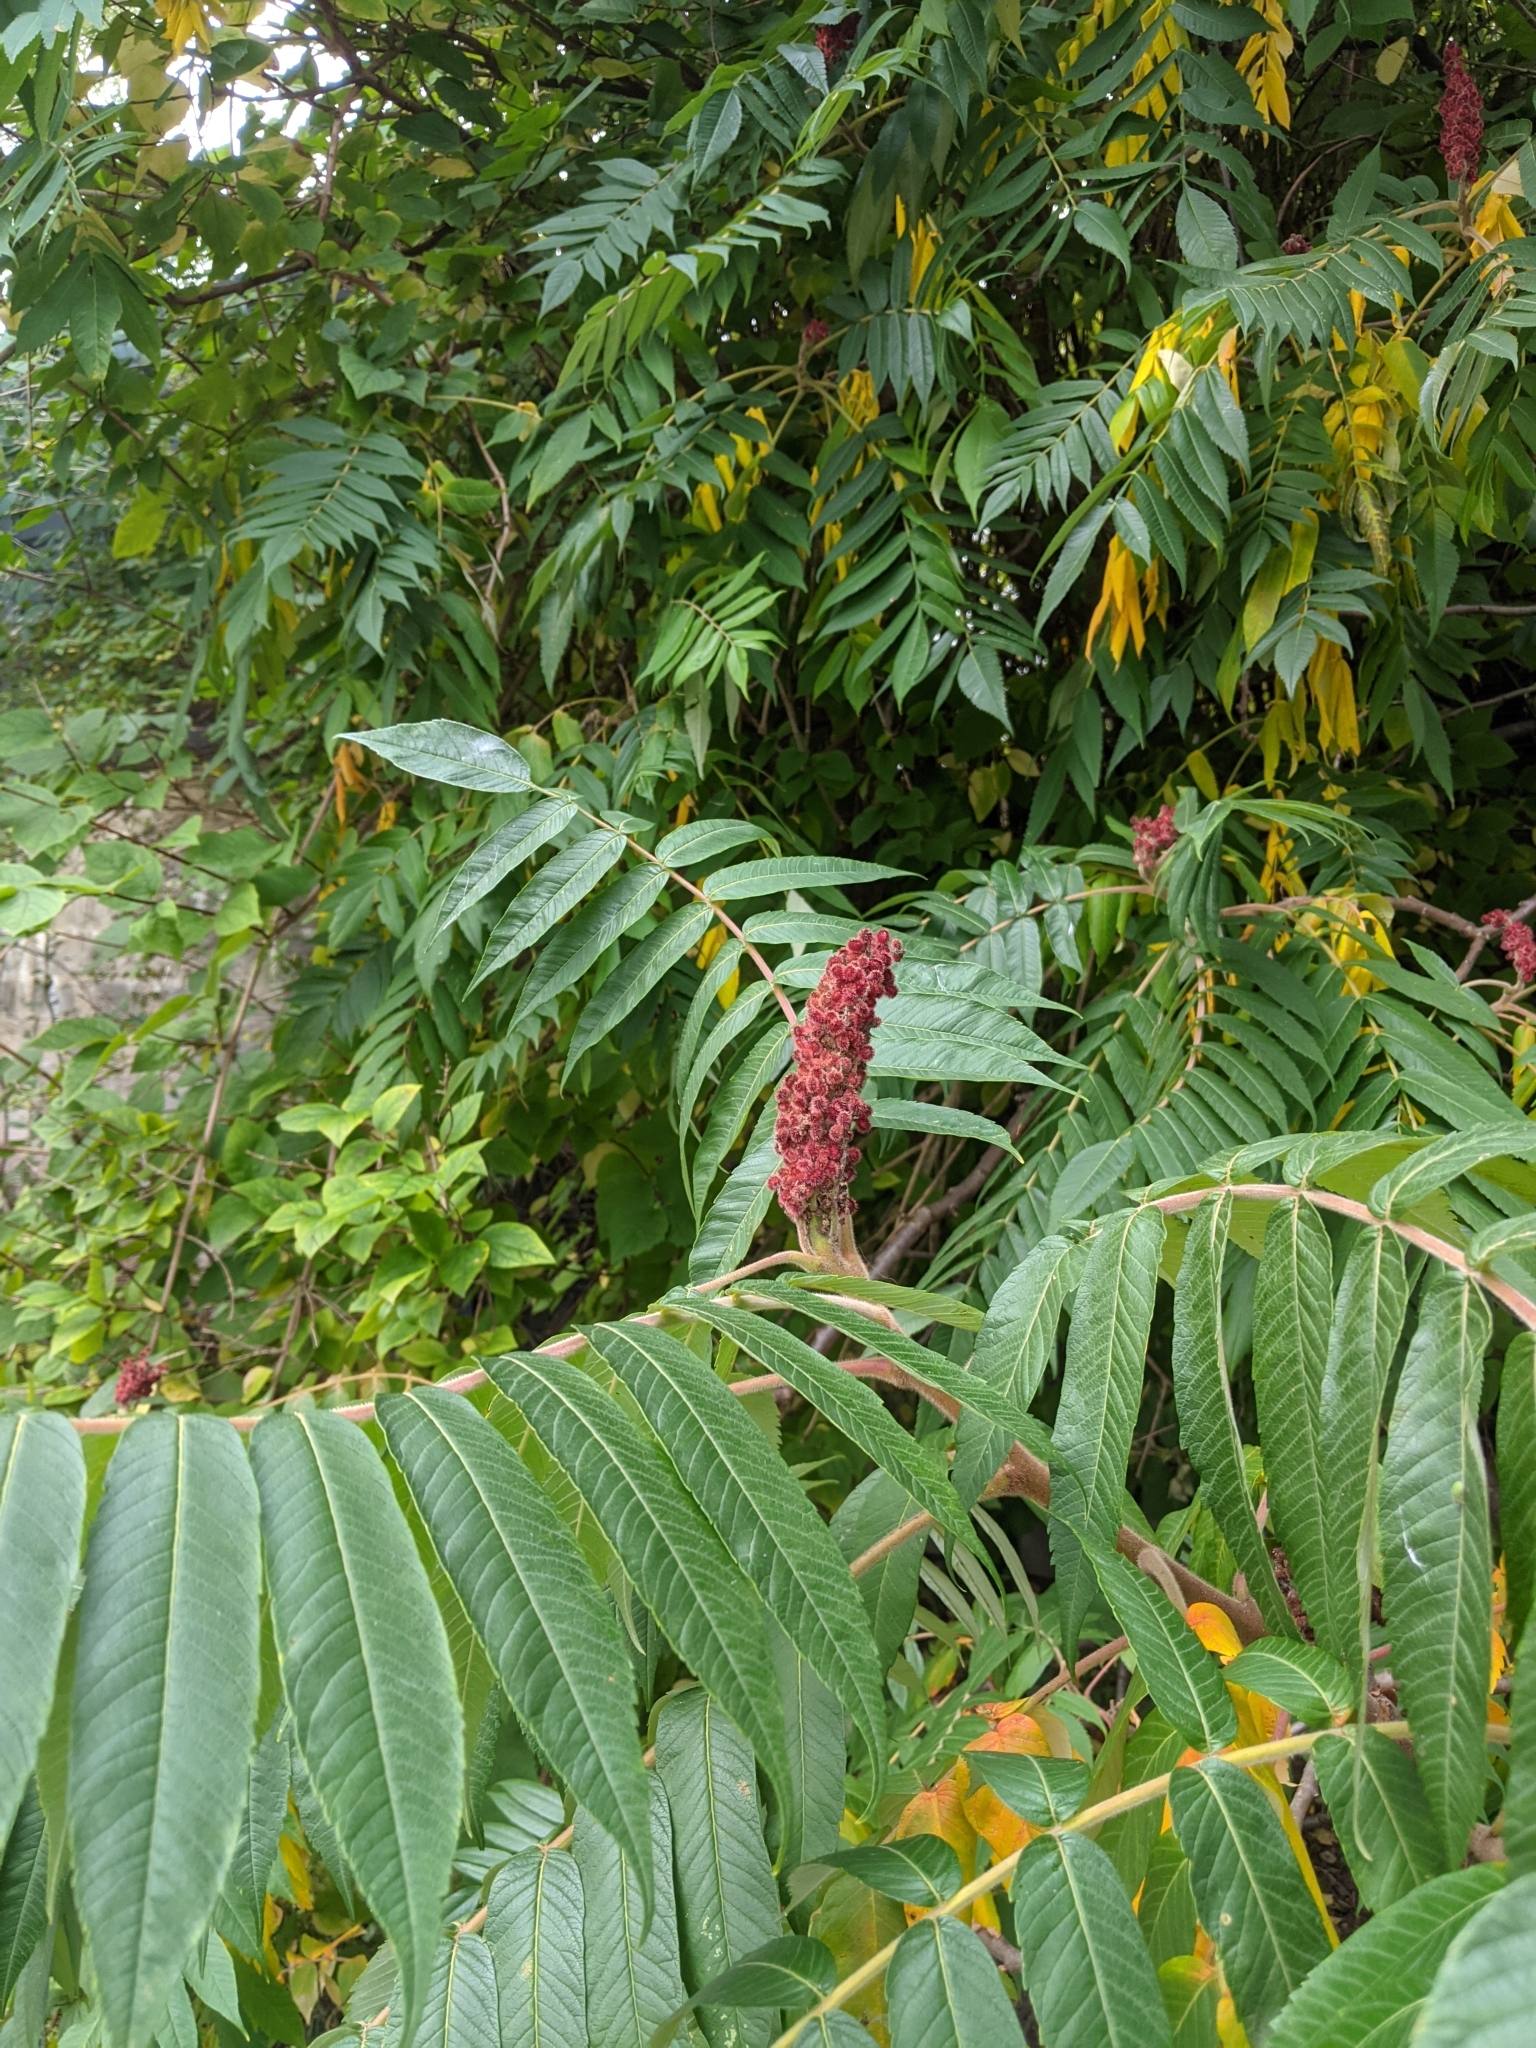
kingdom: Plantae
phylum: Tracheophyta
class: Magnoliopsida
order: Sapindales
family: Anacardiaceae
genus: Rhus
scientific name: Rhus typhina
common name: Staghorn sumac
